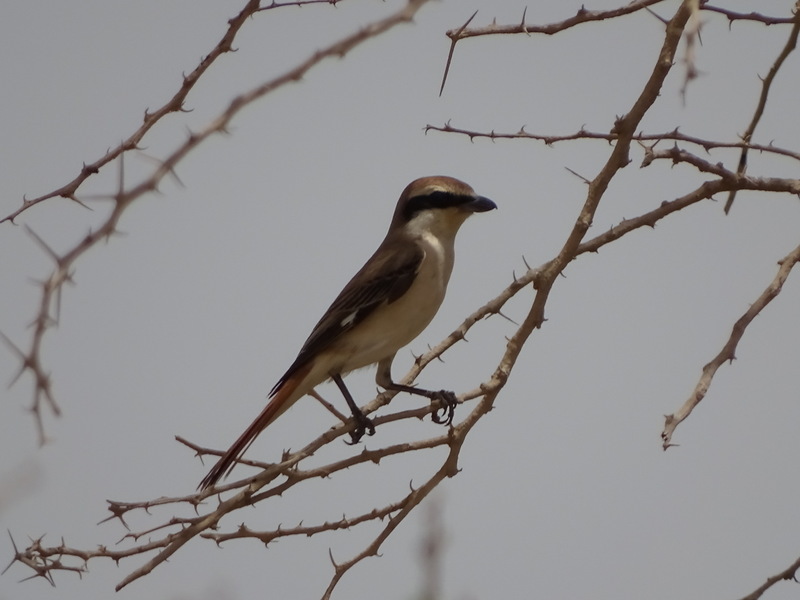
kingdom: Animalia
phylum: Chordata
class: Aves
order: Passeriformes
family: Laniidae
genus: Lanius
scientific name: Lanius phoenicuroides
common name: Red-tailed shrike
